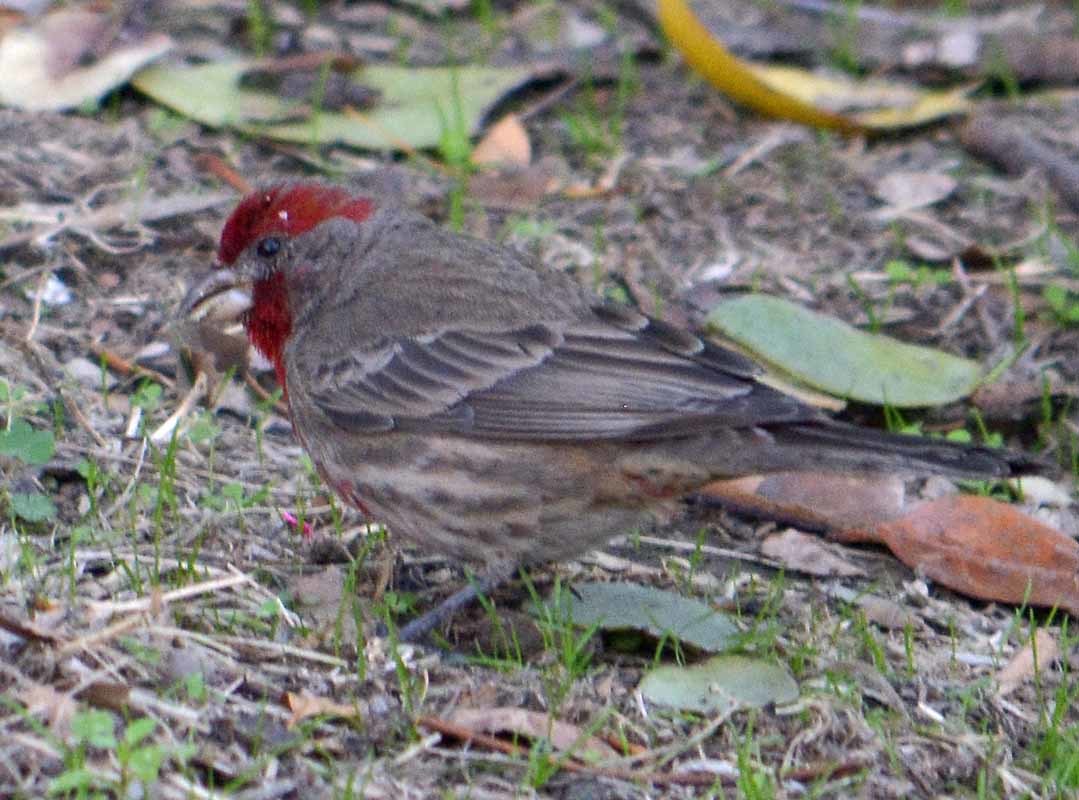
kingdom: Animalia
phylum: Chordata
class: Aves
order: Passeriformes
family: Fringillidae
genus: Haemorhous
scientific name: Haemorhous mexicanus
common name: House finch
